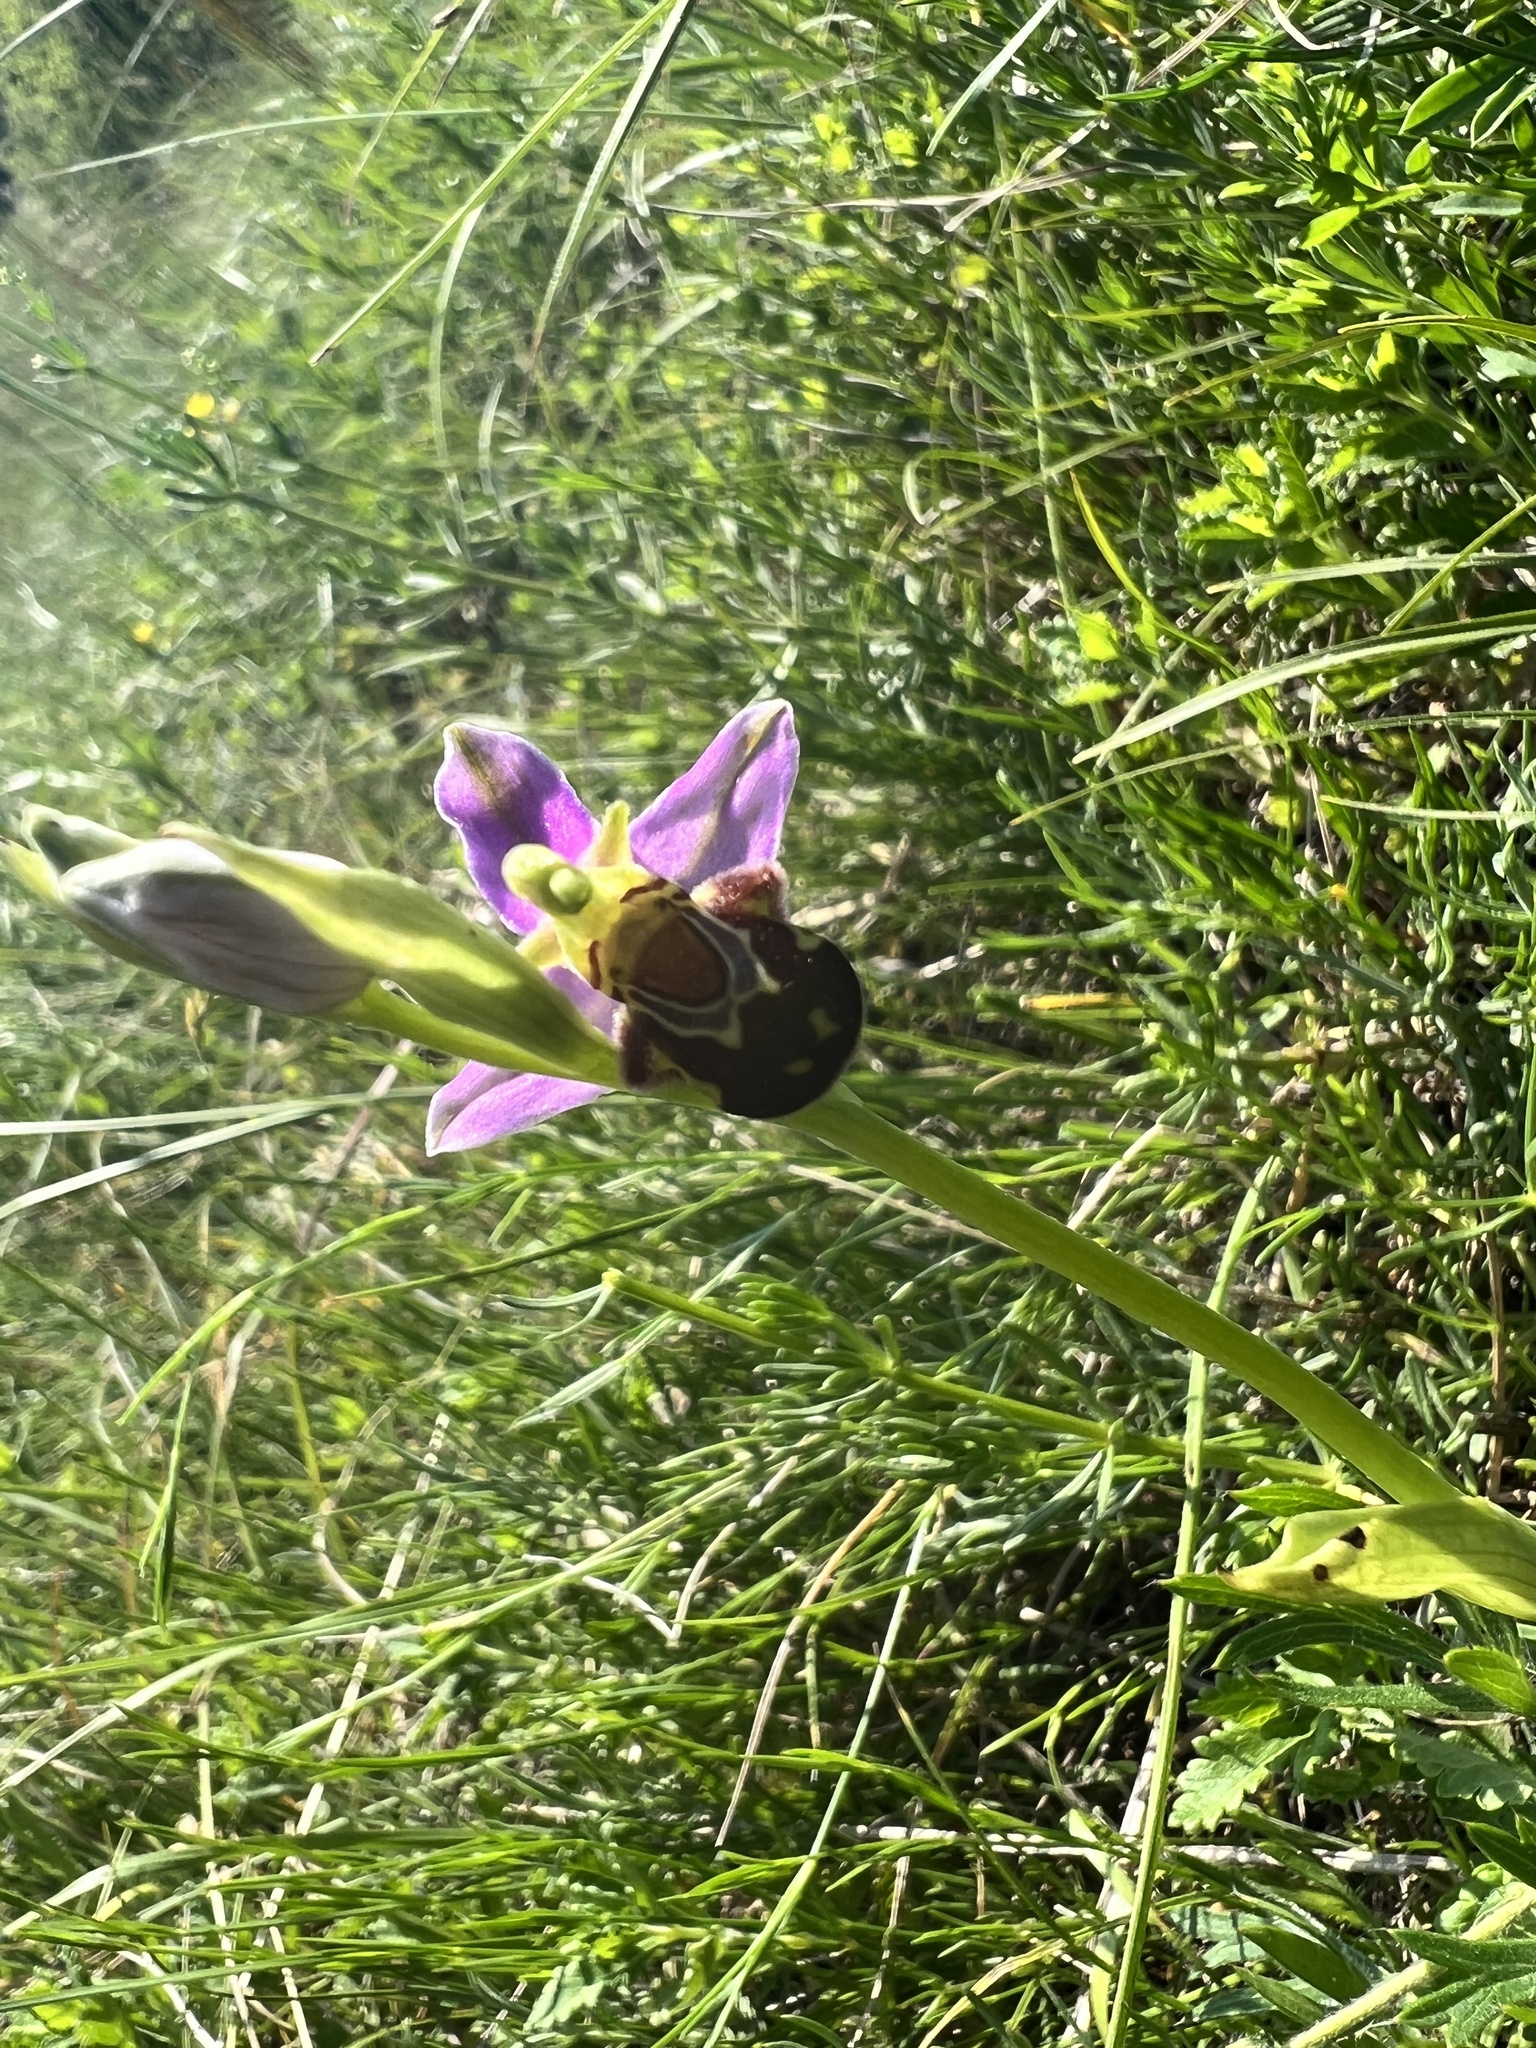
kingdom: Plantae
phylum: Tracheophyta
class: Liliopsida
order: Asparagales
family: Orchidaceae
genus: Ophrys
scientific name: Ophrys apifera
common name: Bee orchid
